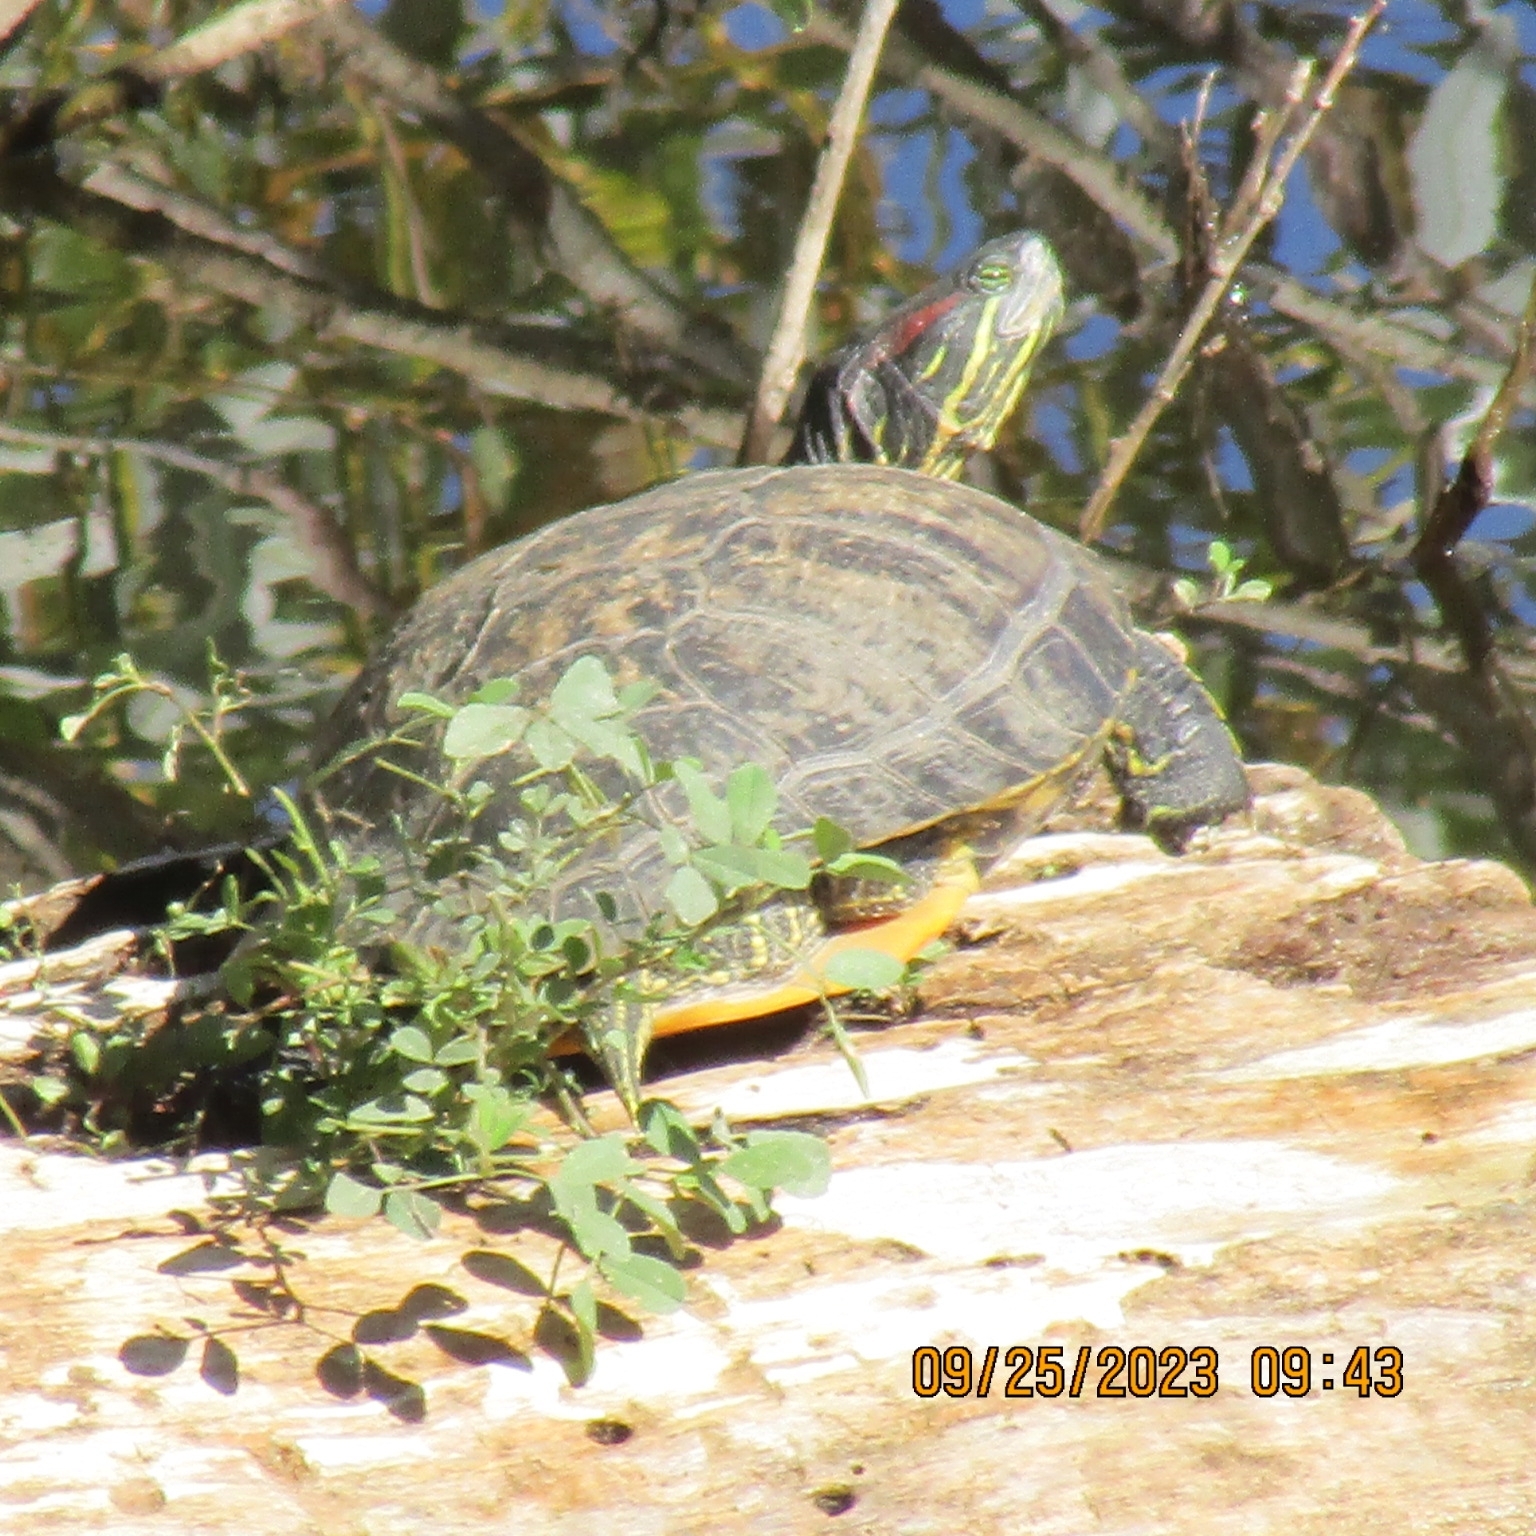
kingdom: Animalia
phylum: Chordata
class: Testudines
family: Emydidae
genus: Trachemys
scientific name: Trachemys scripta
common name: Slider
